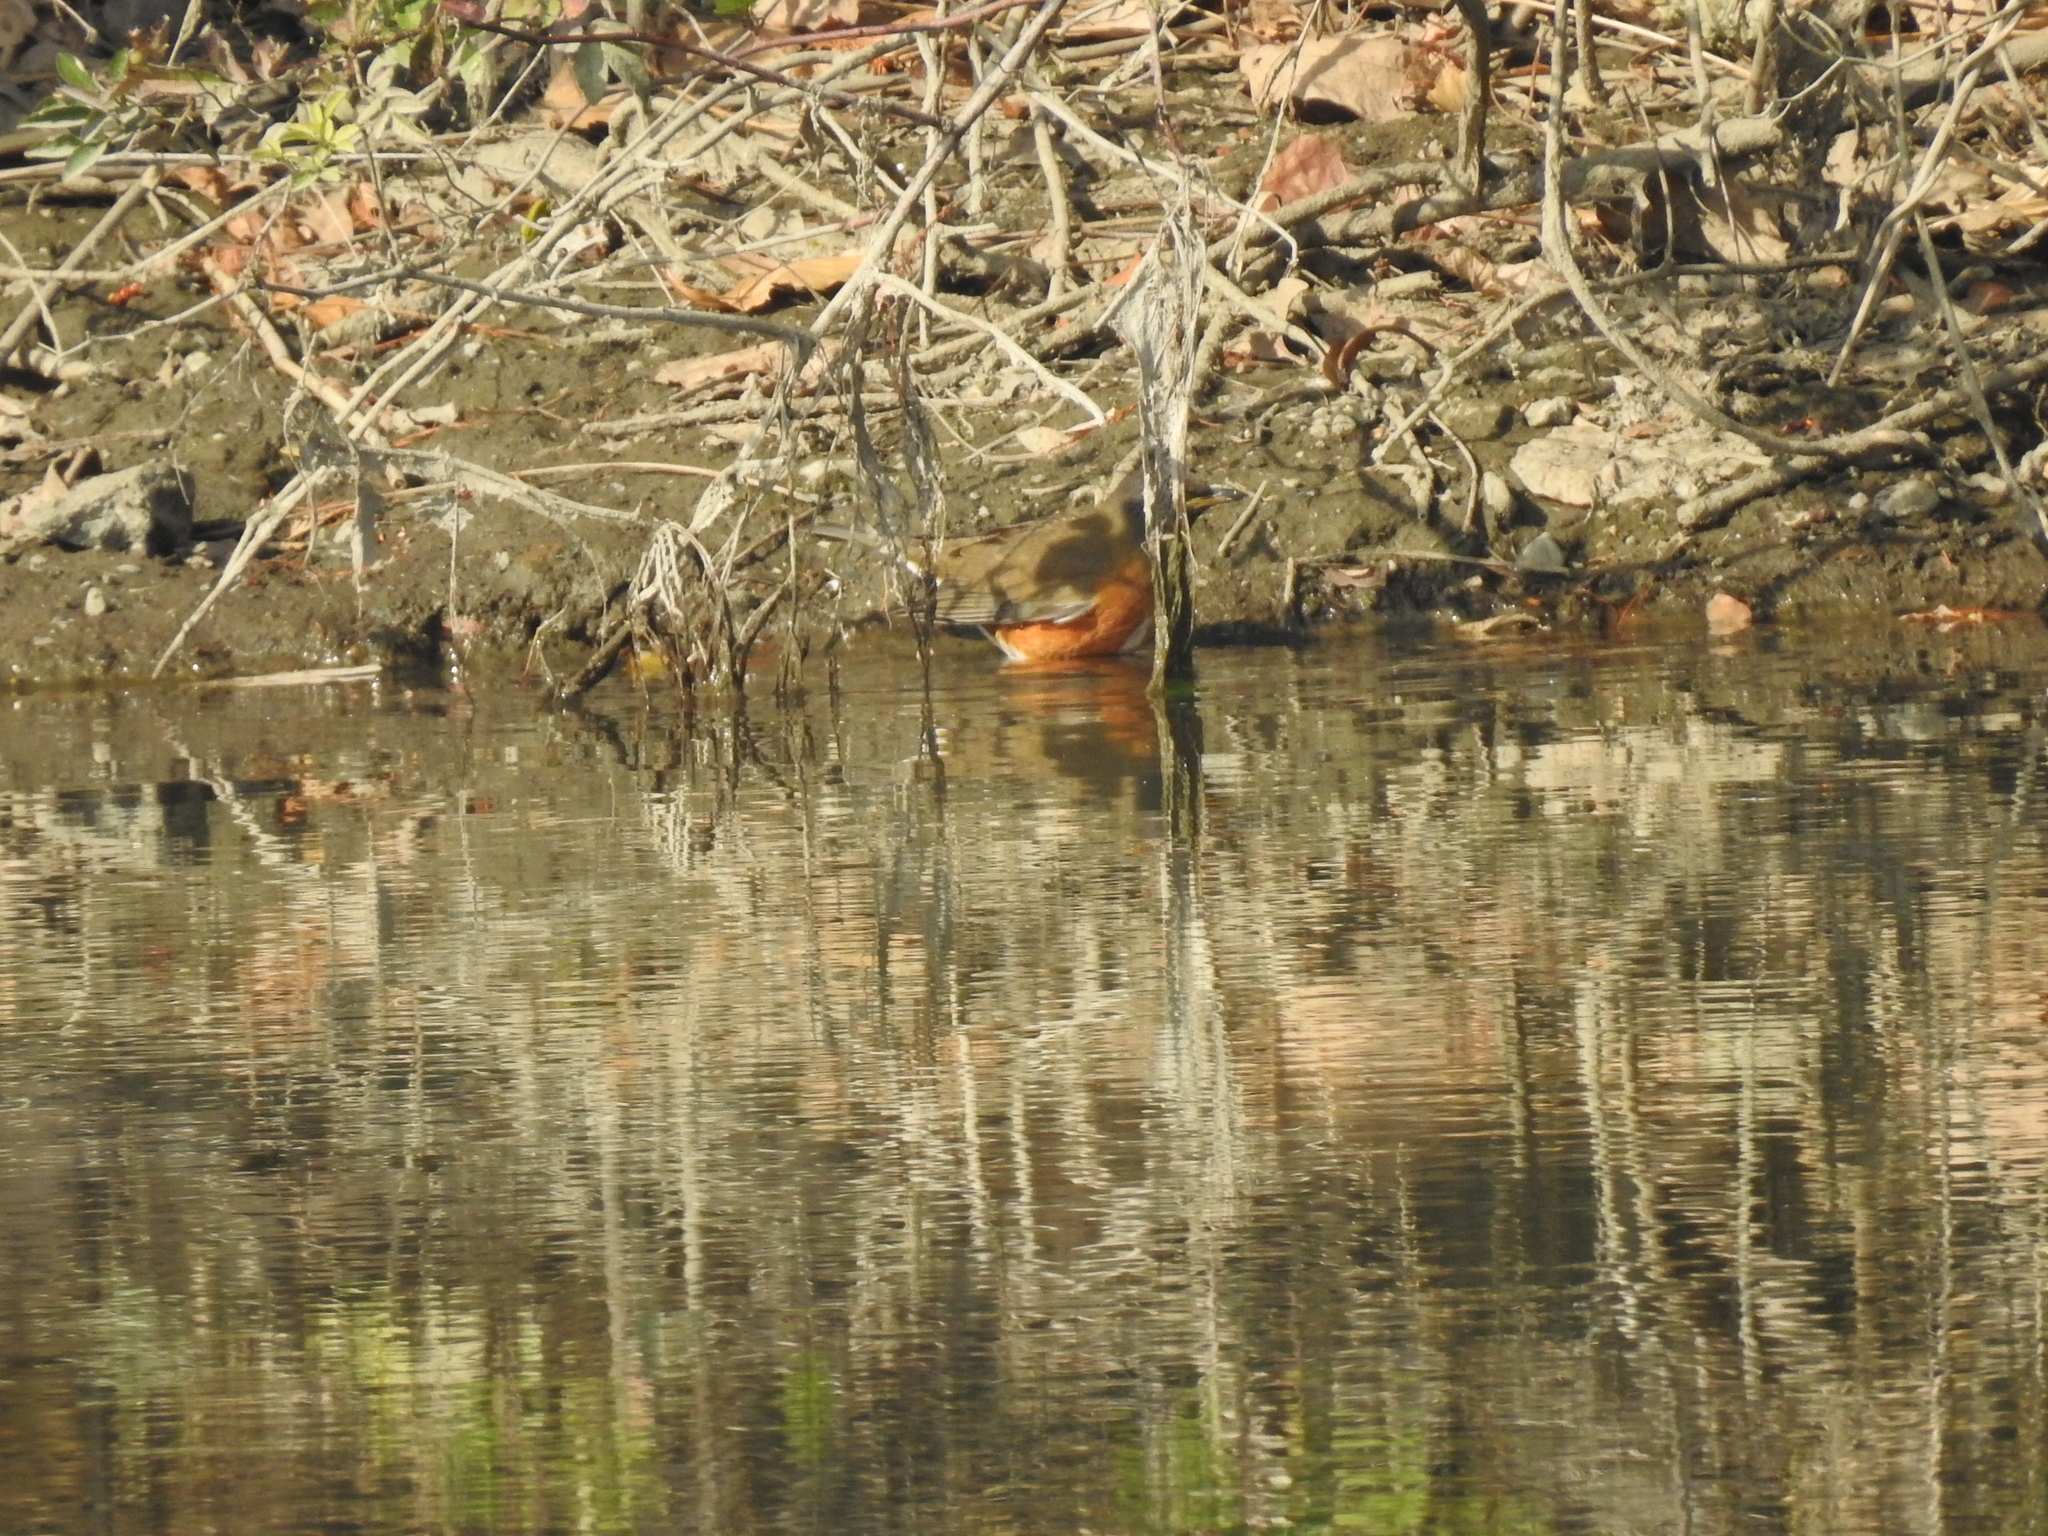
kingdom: Animalia
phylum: Chordata
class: Aves
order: Passeriformes
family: Turdidae
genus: Turdus
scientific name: Turdus chrysolaus
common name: Brown-headed thrush
